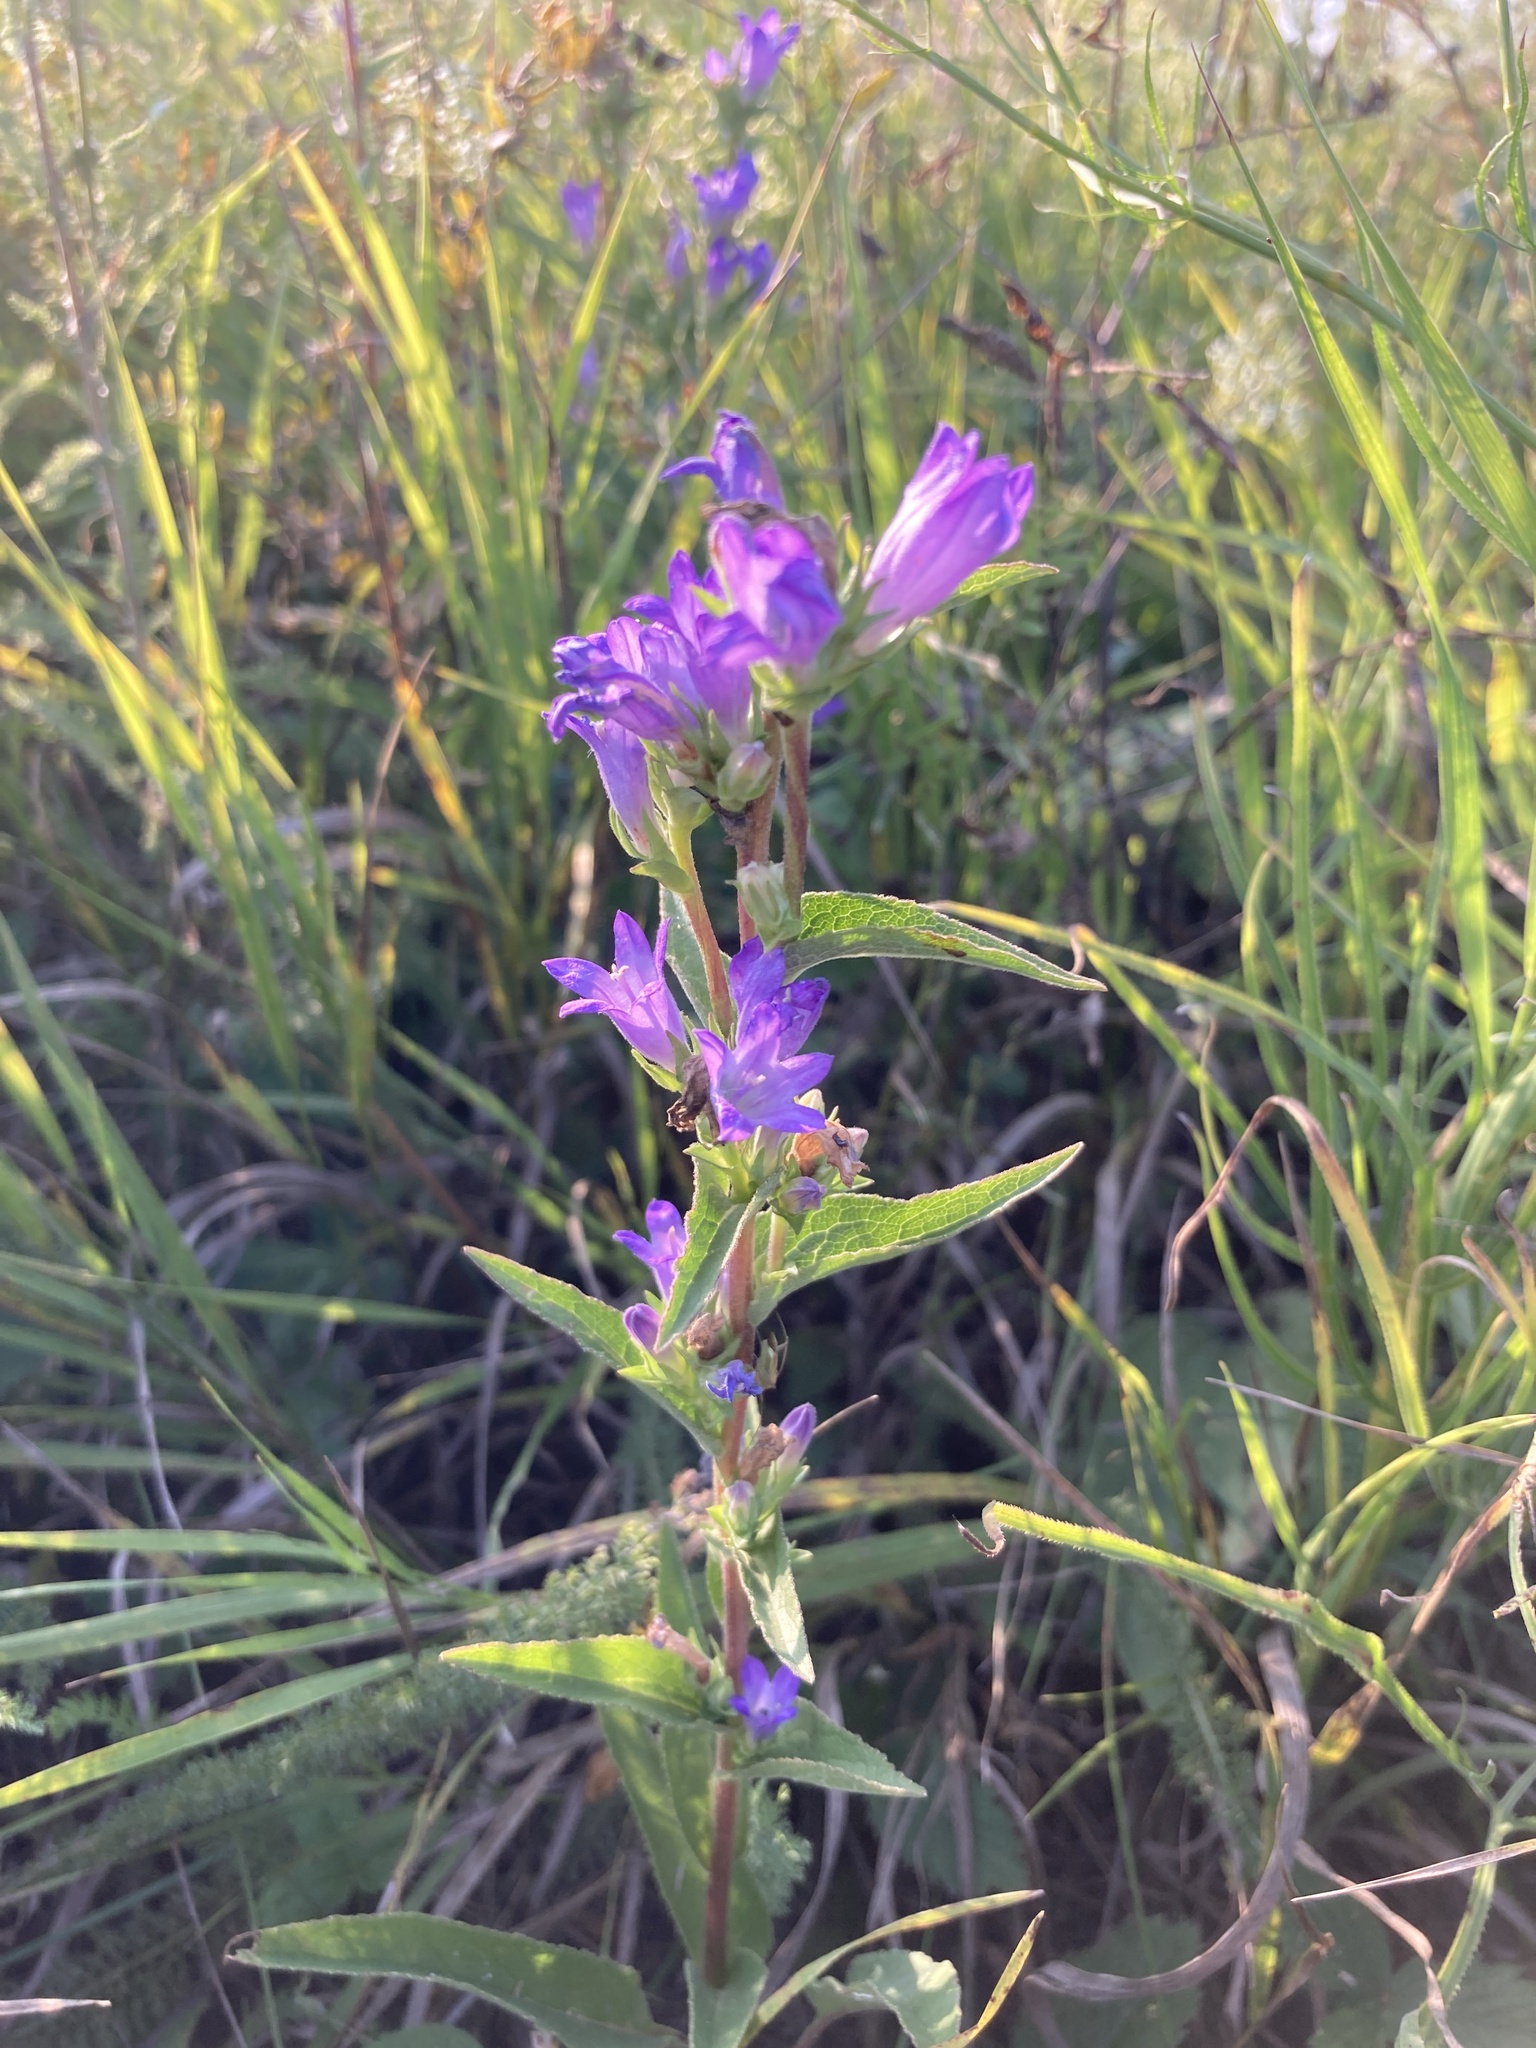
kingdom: Plantae
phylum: Tracheophyta
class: Magnoliopsida
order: Asterales
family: Campanulaceae
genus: Campanula
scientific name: Campanula glomerata
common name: Clustered bellflower
